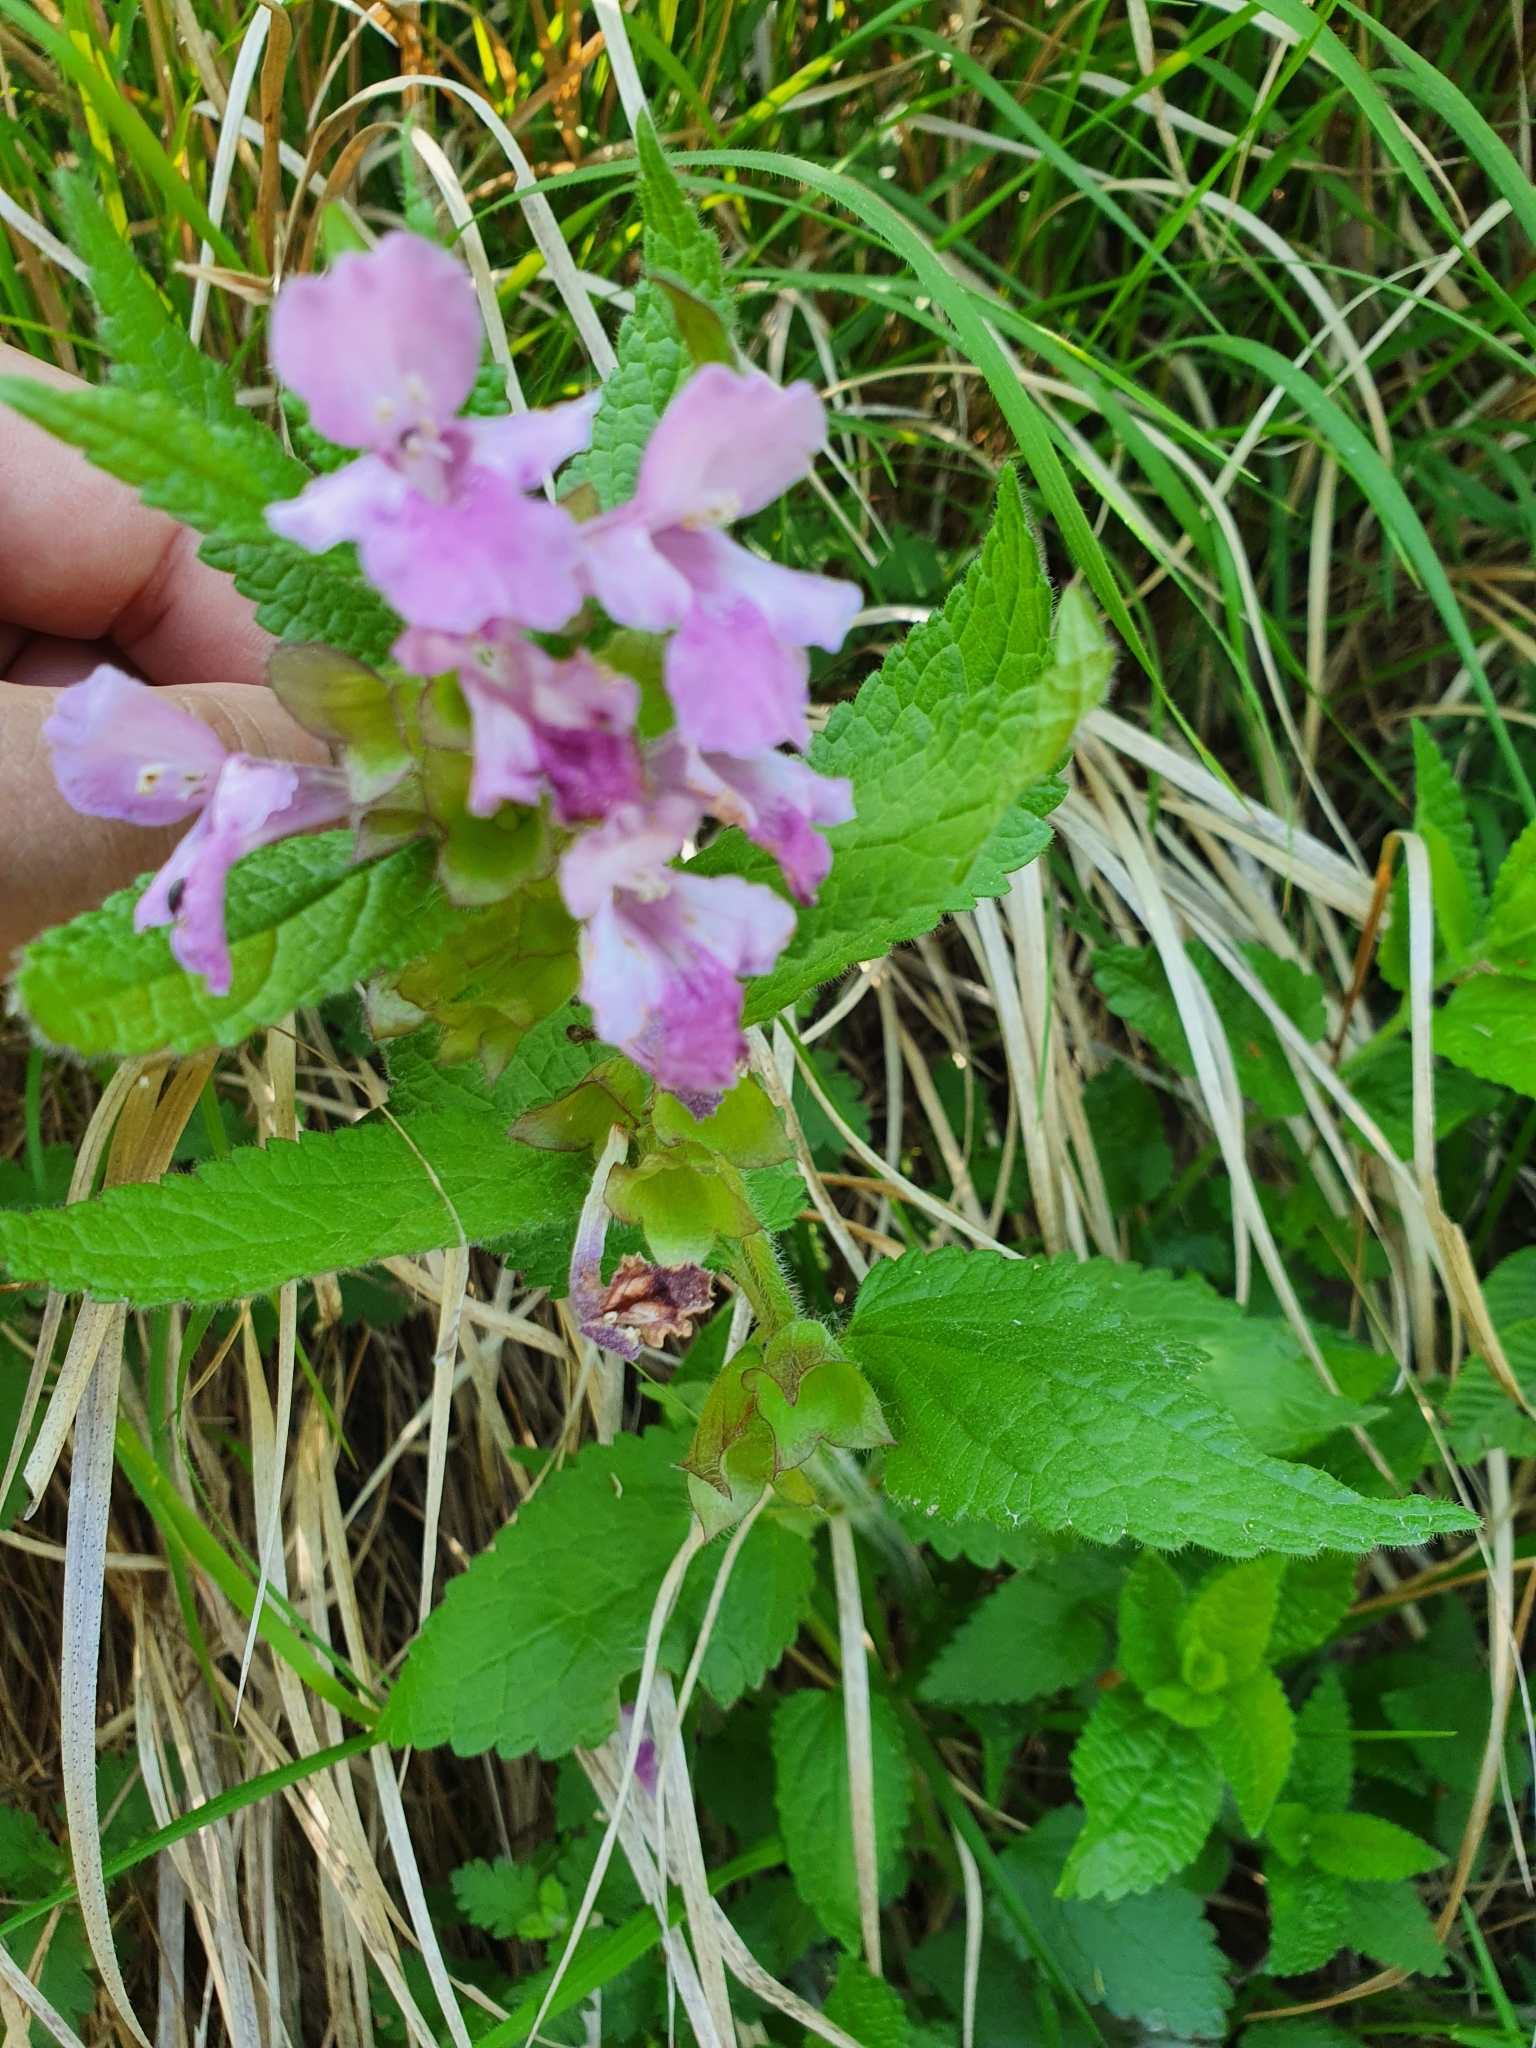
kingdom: Plantae
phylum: Tracheophyta
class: Magnoliopsida
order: Lamiales
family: Lamiaceae
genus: Melittis
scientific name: Melittis melissophyllum
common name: Bastard balm
